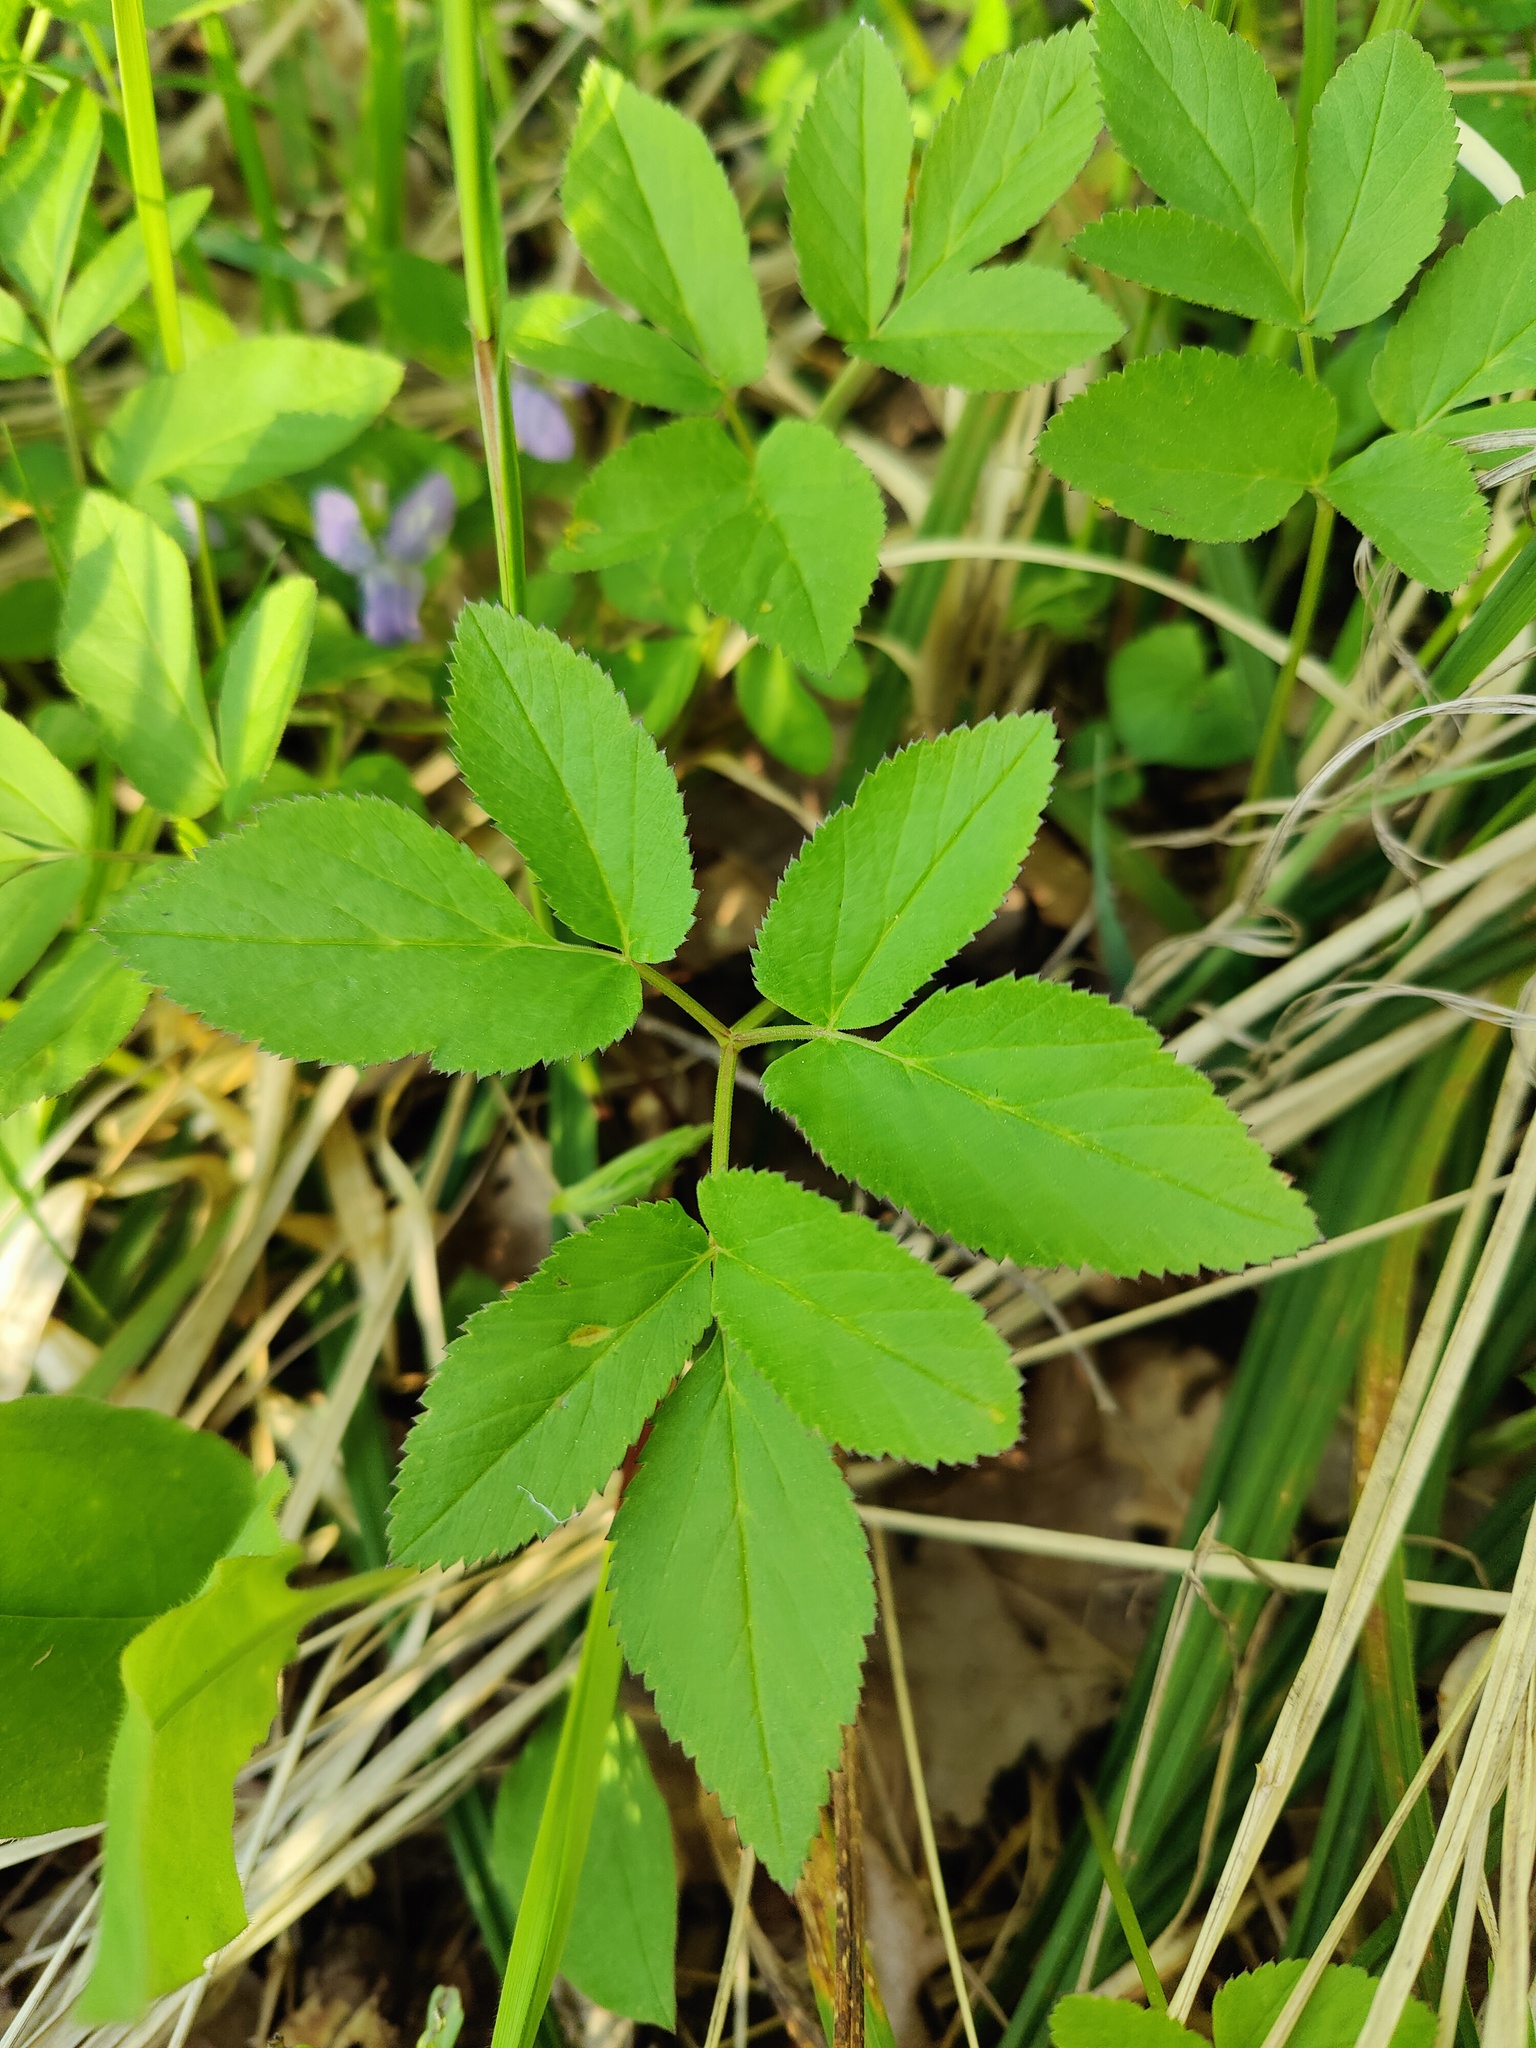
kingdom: Plantae
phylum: Tracheophyta
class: Magnoliopsida
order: Apiales
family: Apiaceae
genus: Aegopodium
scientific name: Aegopodium podagraria
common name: Ground-elder
